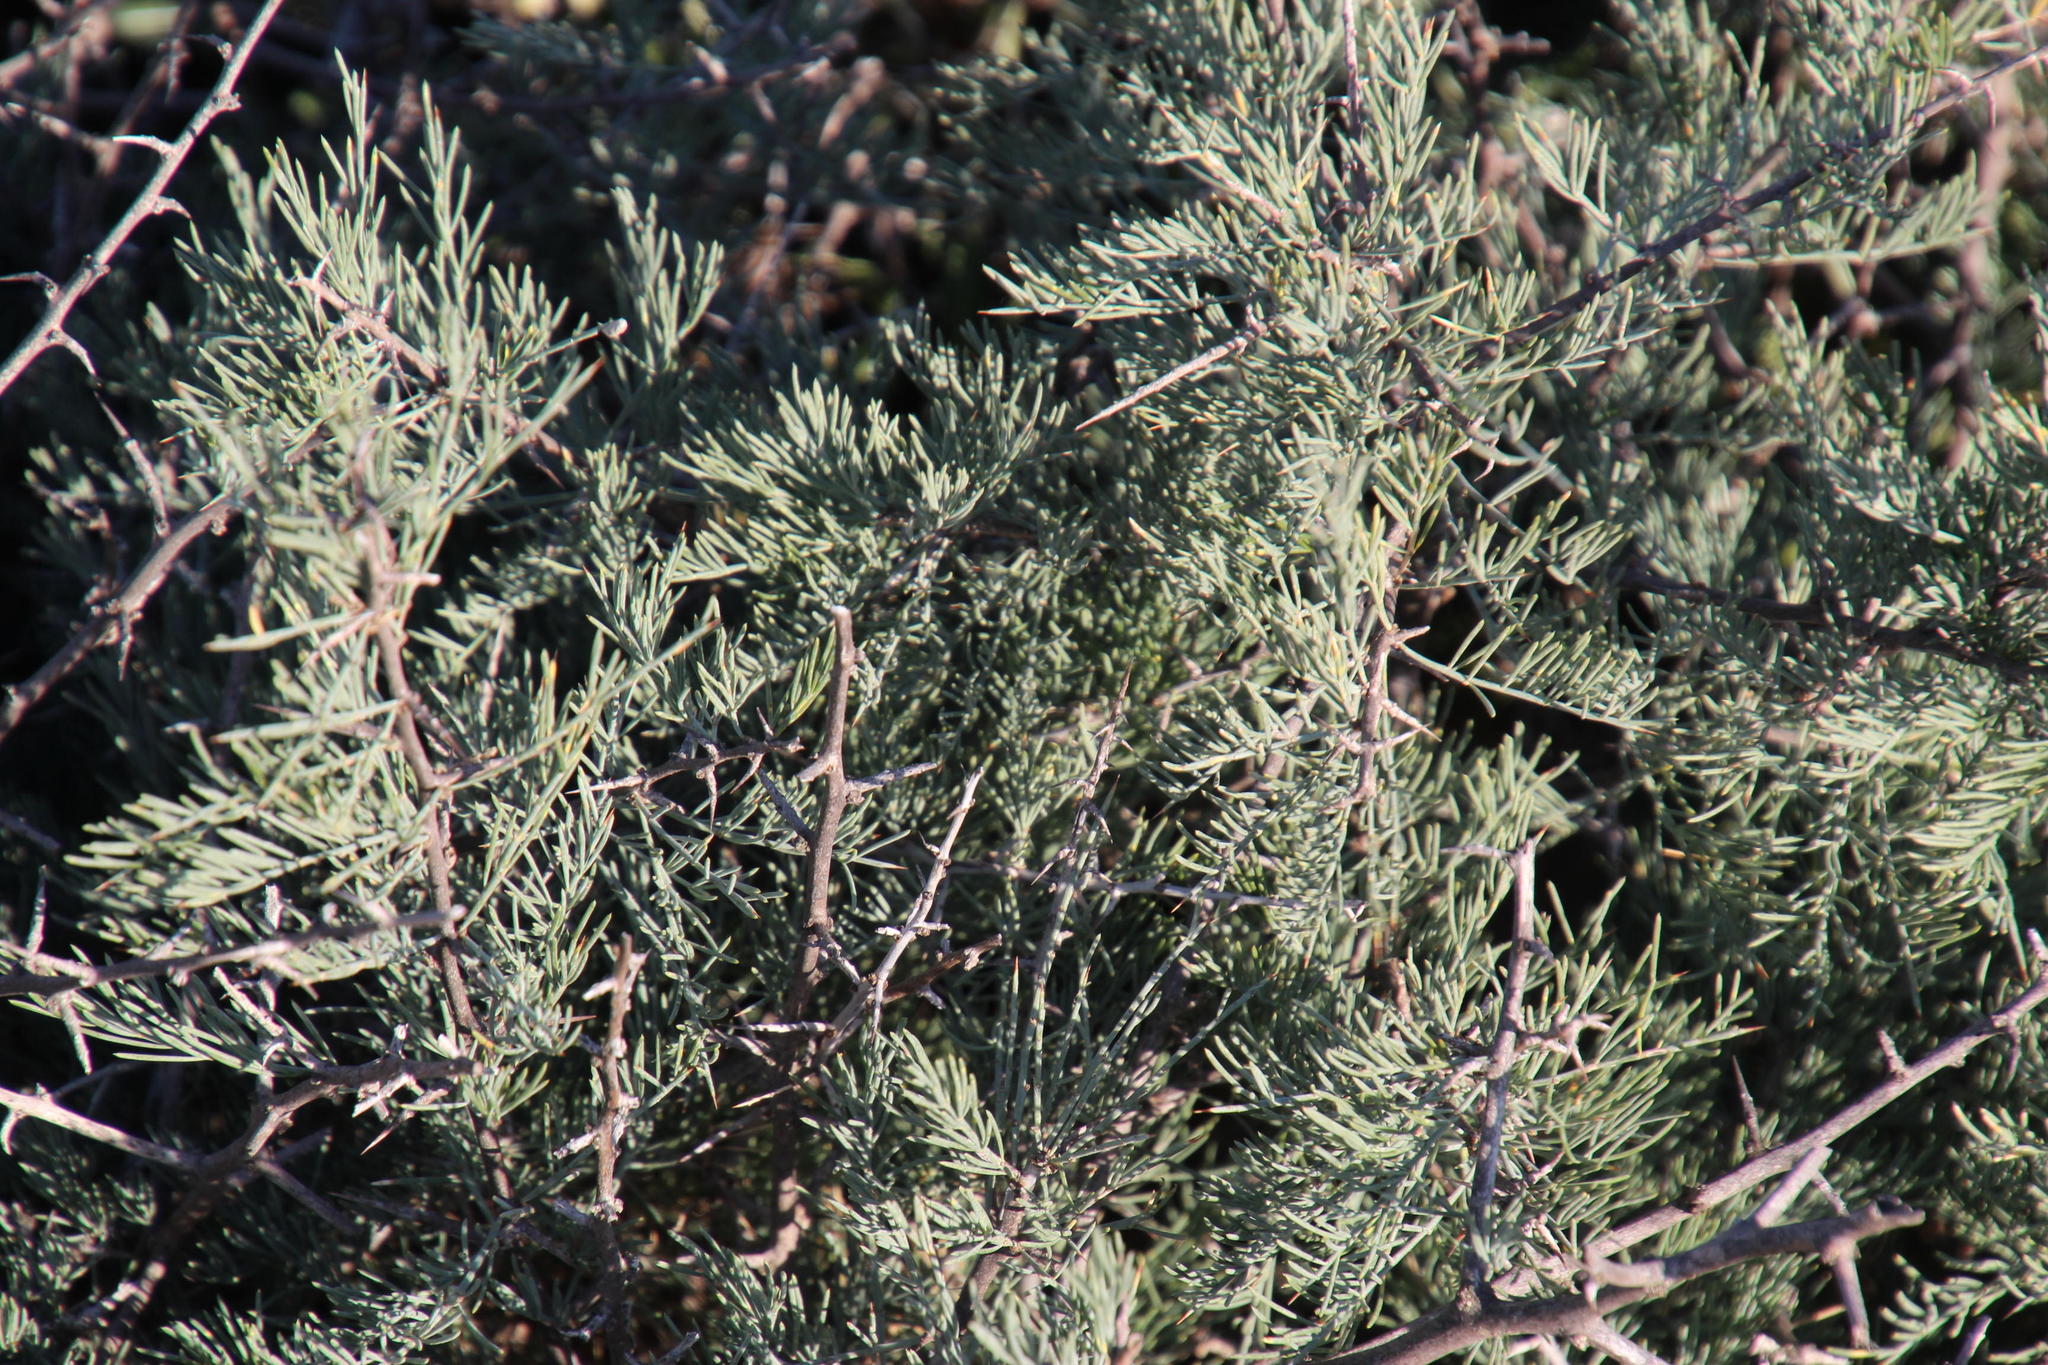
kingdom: Plantae
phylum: Tracheophyta
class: Liliopsida
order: Asparagales
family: Asparagaceae
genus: Asparagus
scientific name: Asparagus glaucus
